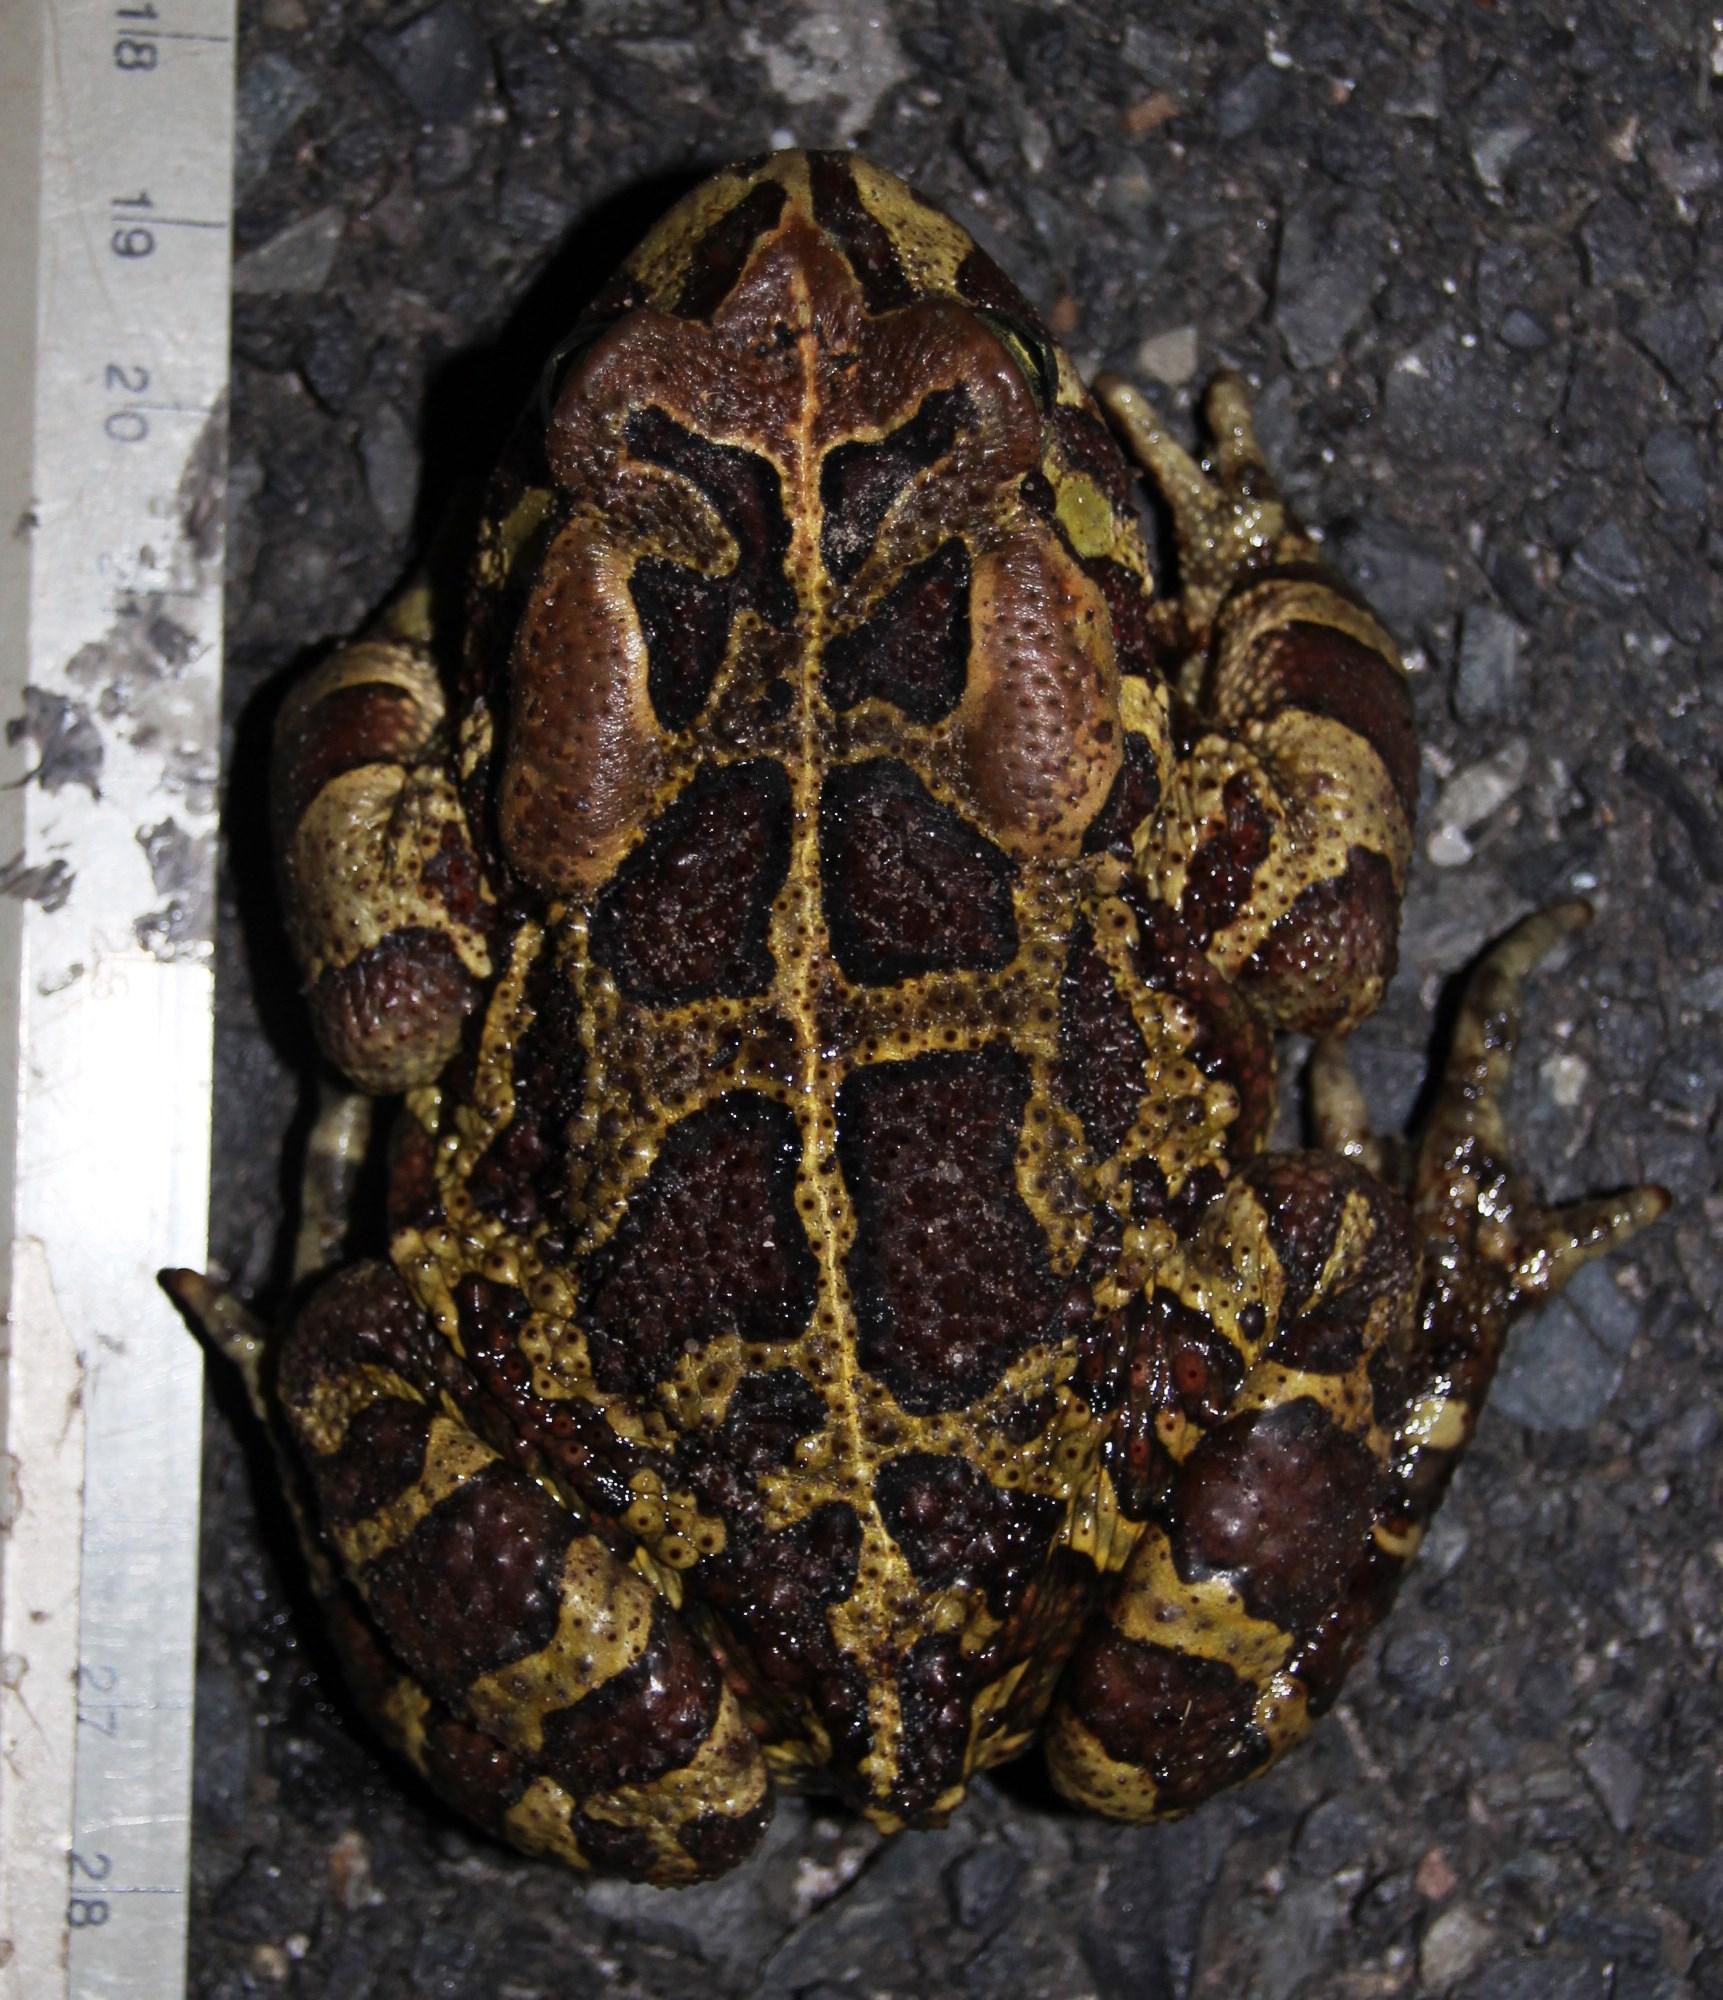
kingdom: Animalia
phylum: Chordata
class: Amphibia
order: Anura
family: Bufonidae
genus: Sclerophrys
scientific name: Sclerophrys pantherina
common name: Panther toad
